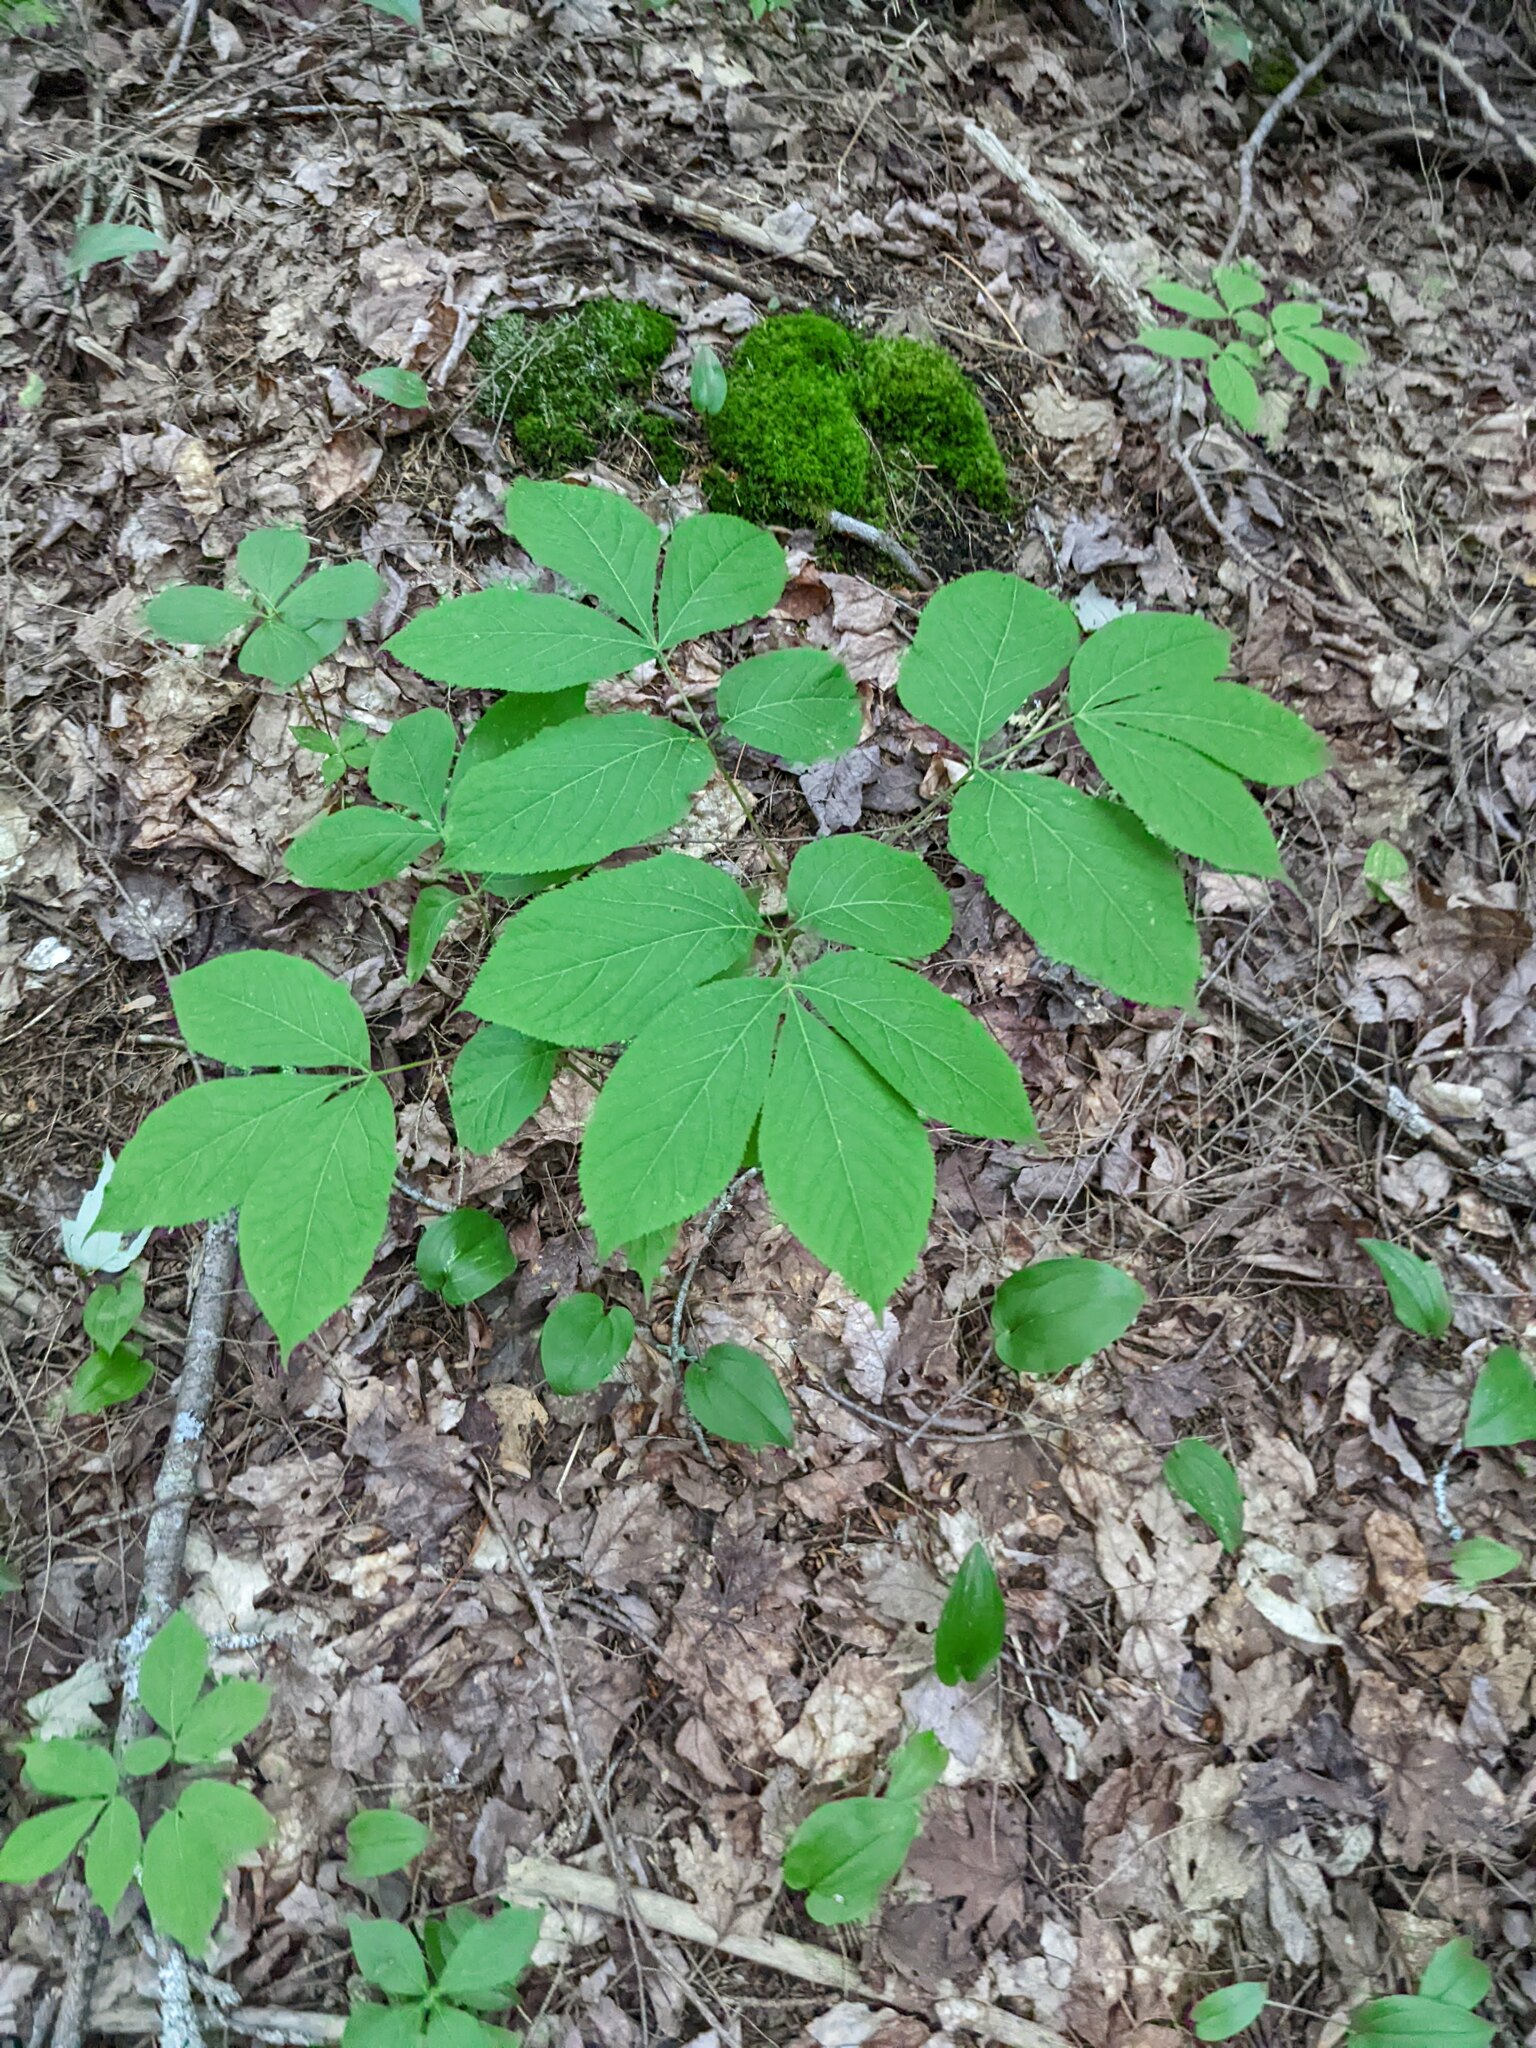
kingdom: Plantae
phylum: Tracheophyta
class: Magnoliopsida
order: Apiales
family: Araliaceae
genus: Aralia
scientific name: Aralia nudicaulis
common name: Wild sarsaparilla
